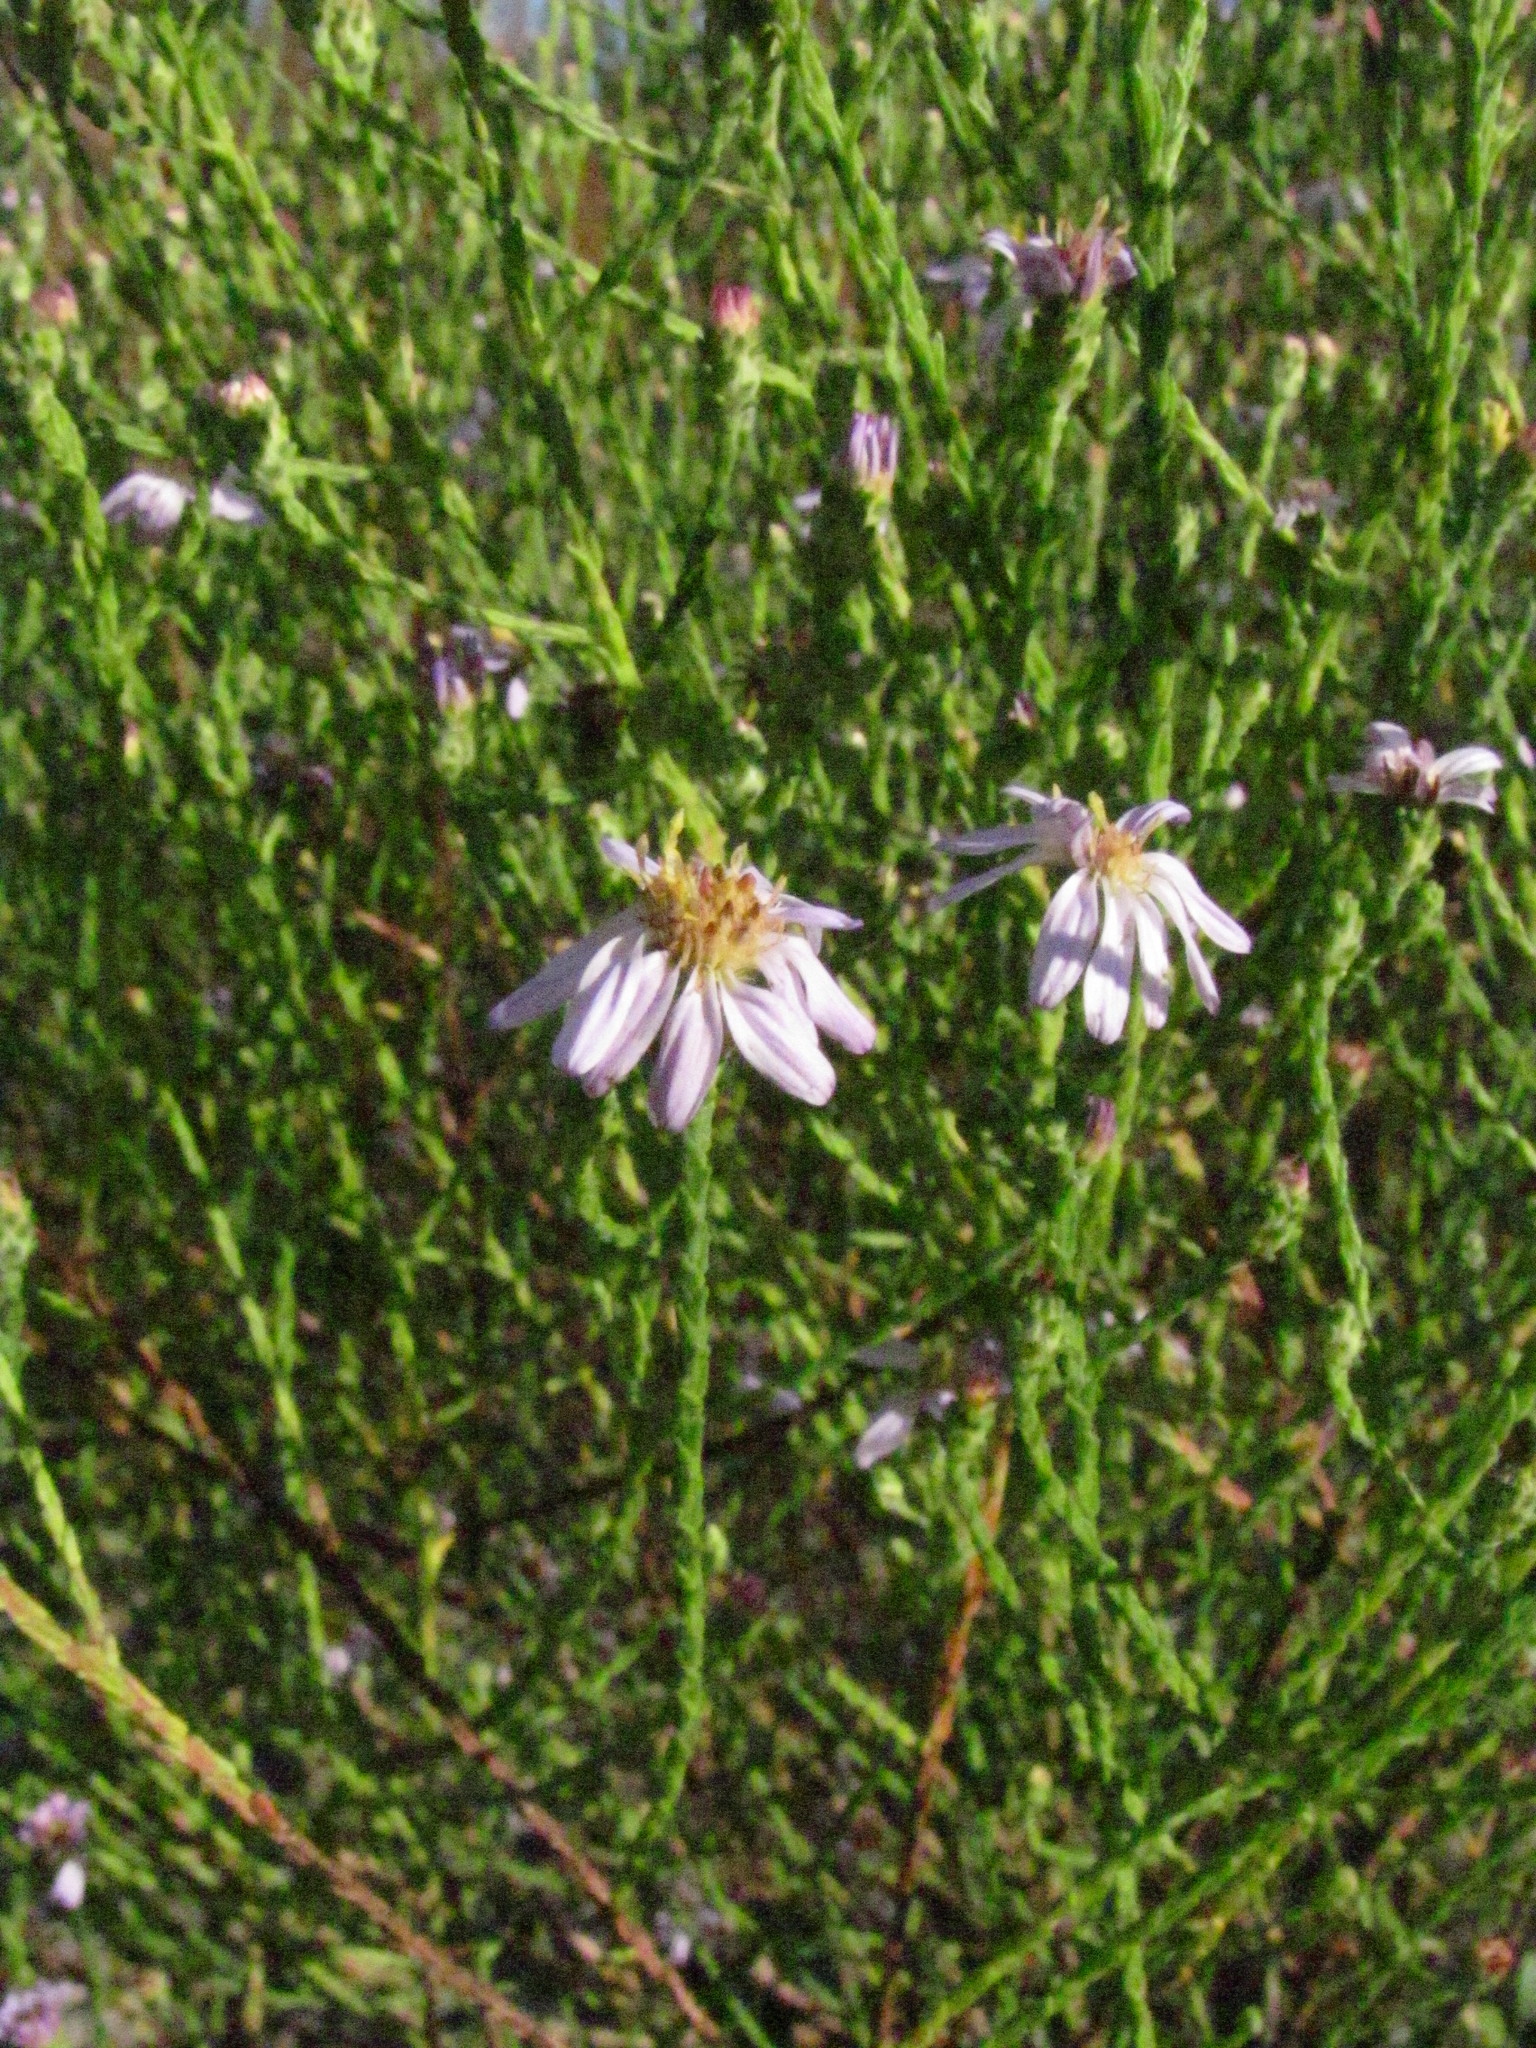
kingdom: Plantae
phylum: Tracheophyta
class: Magnoliopsida
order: Asterales
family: Asteraceae
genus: Symphyotrichum
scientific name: Symphyotrichum adnatum
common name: Scale-leaf aster
